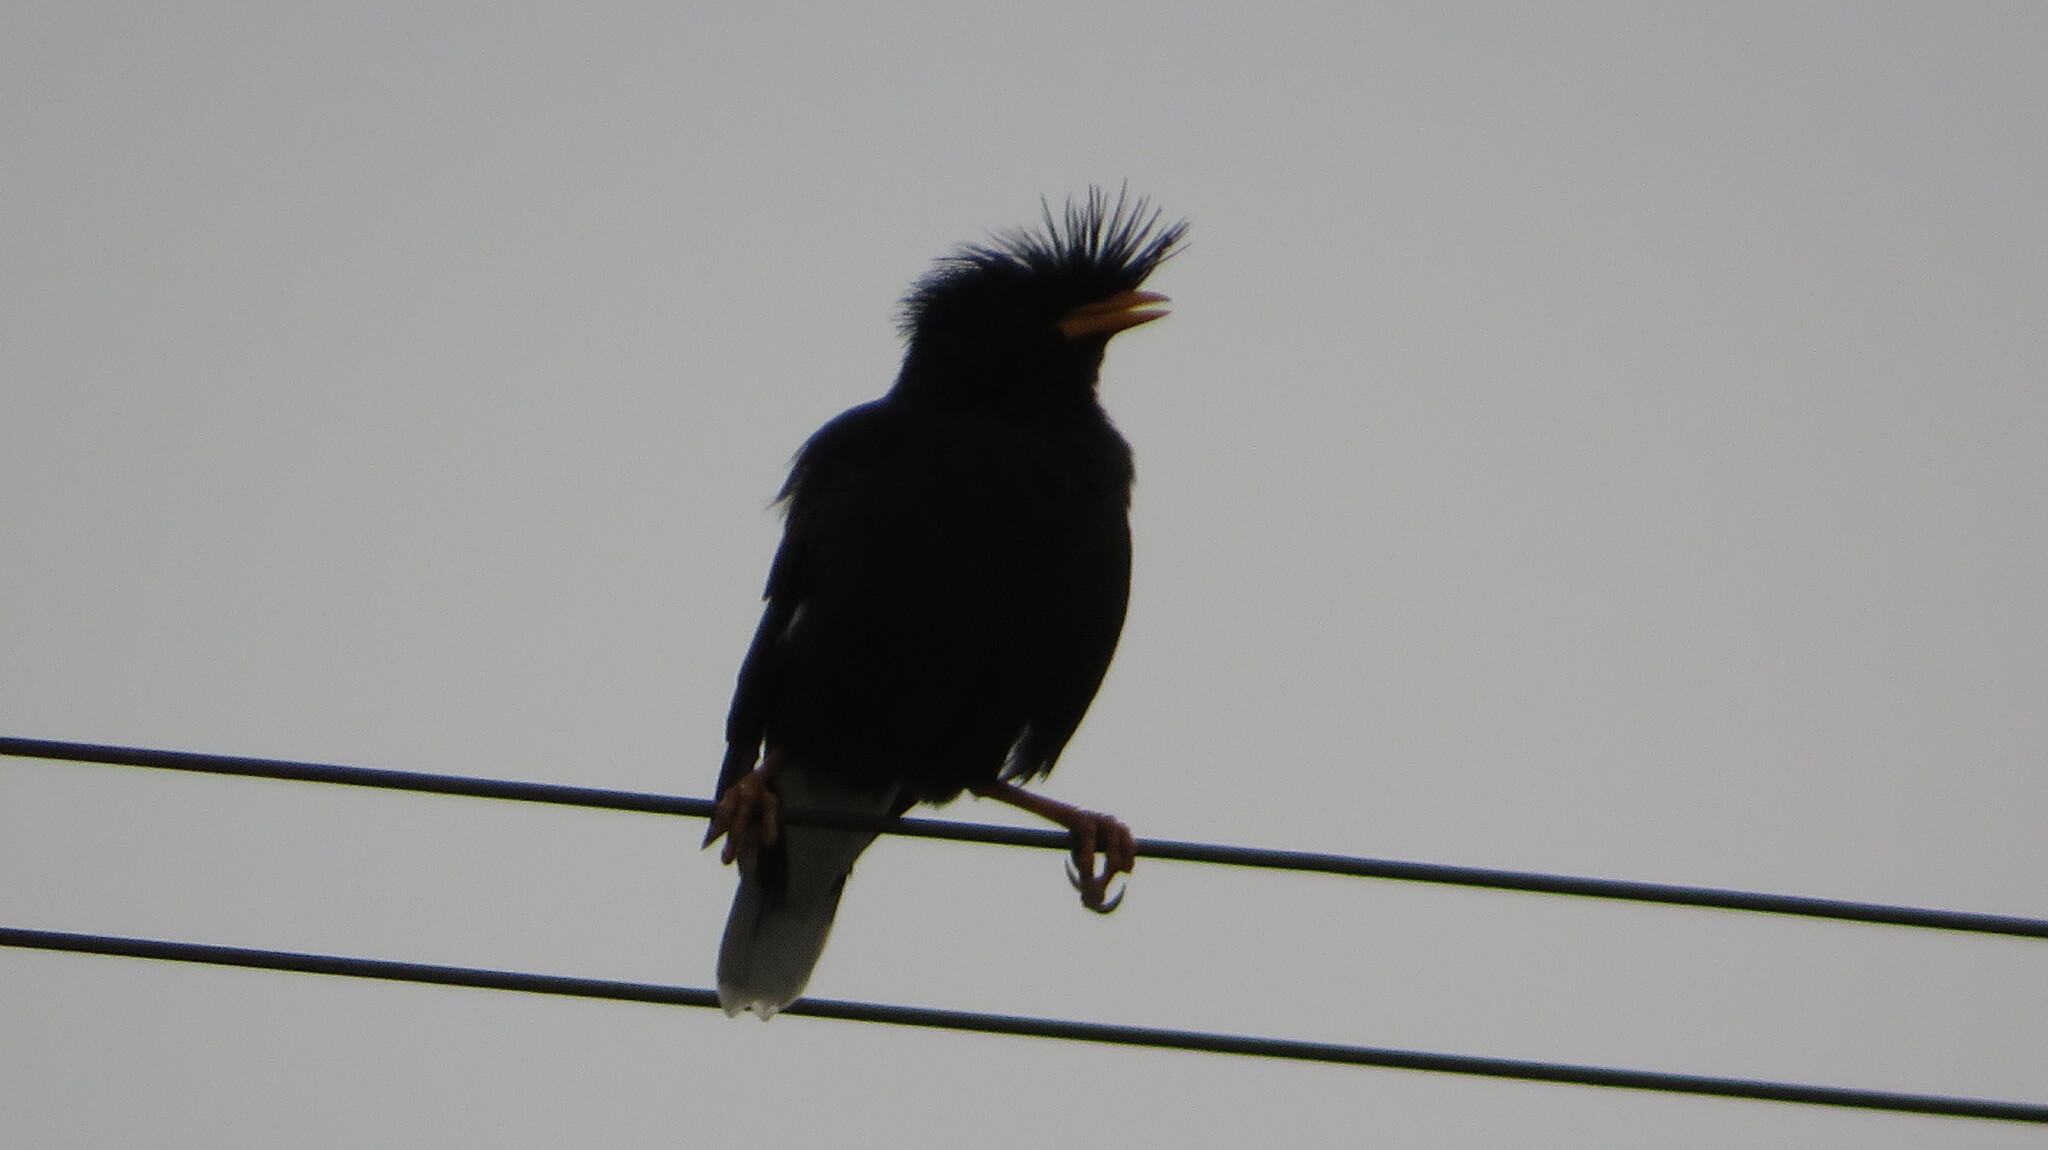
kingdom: Animalia
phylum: Chordata
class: Aves
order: Passeriformes
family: Sturnidae
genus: Acridotheres
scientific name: Acridotheres grandis
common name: Great myna
